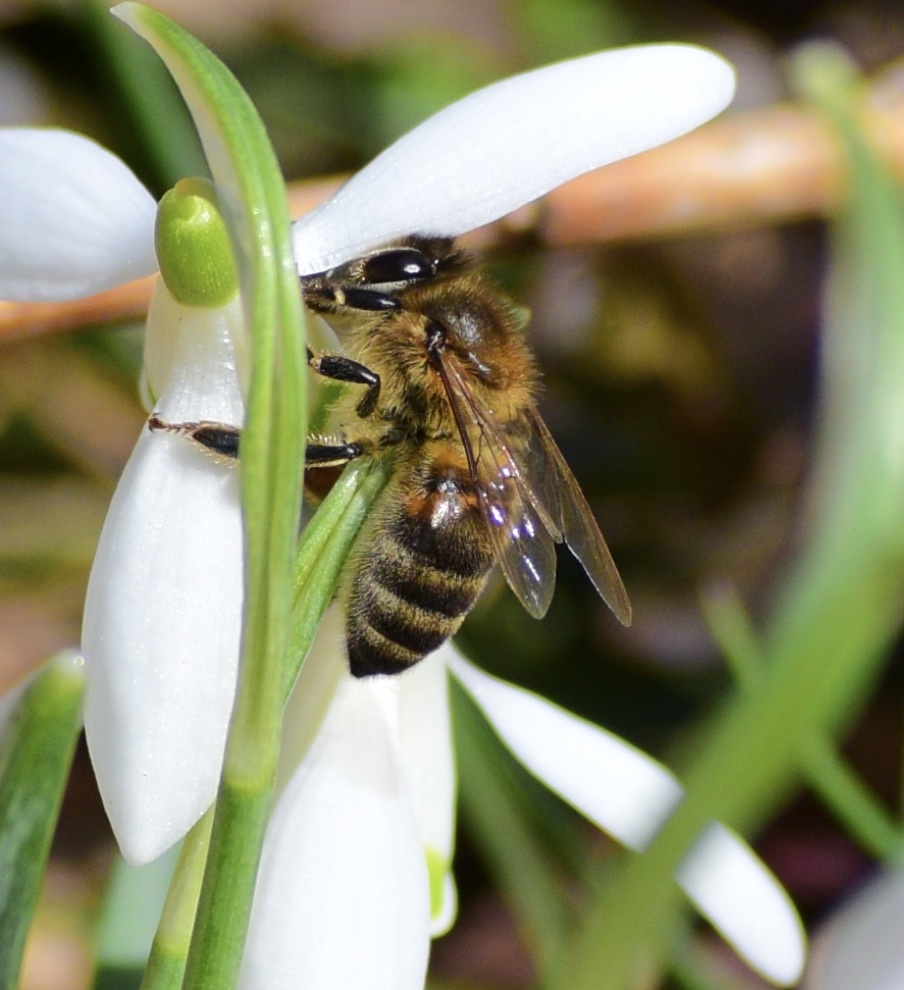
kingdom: Animalia
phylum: Arthropoda
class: Insecta
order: Hymenoptera
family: Apidae
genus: Apis
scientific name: Apis mellifera
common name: Honey bee
